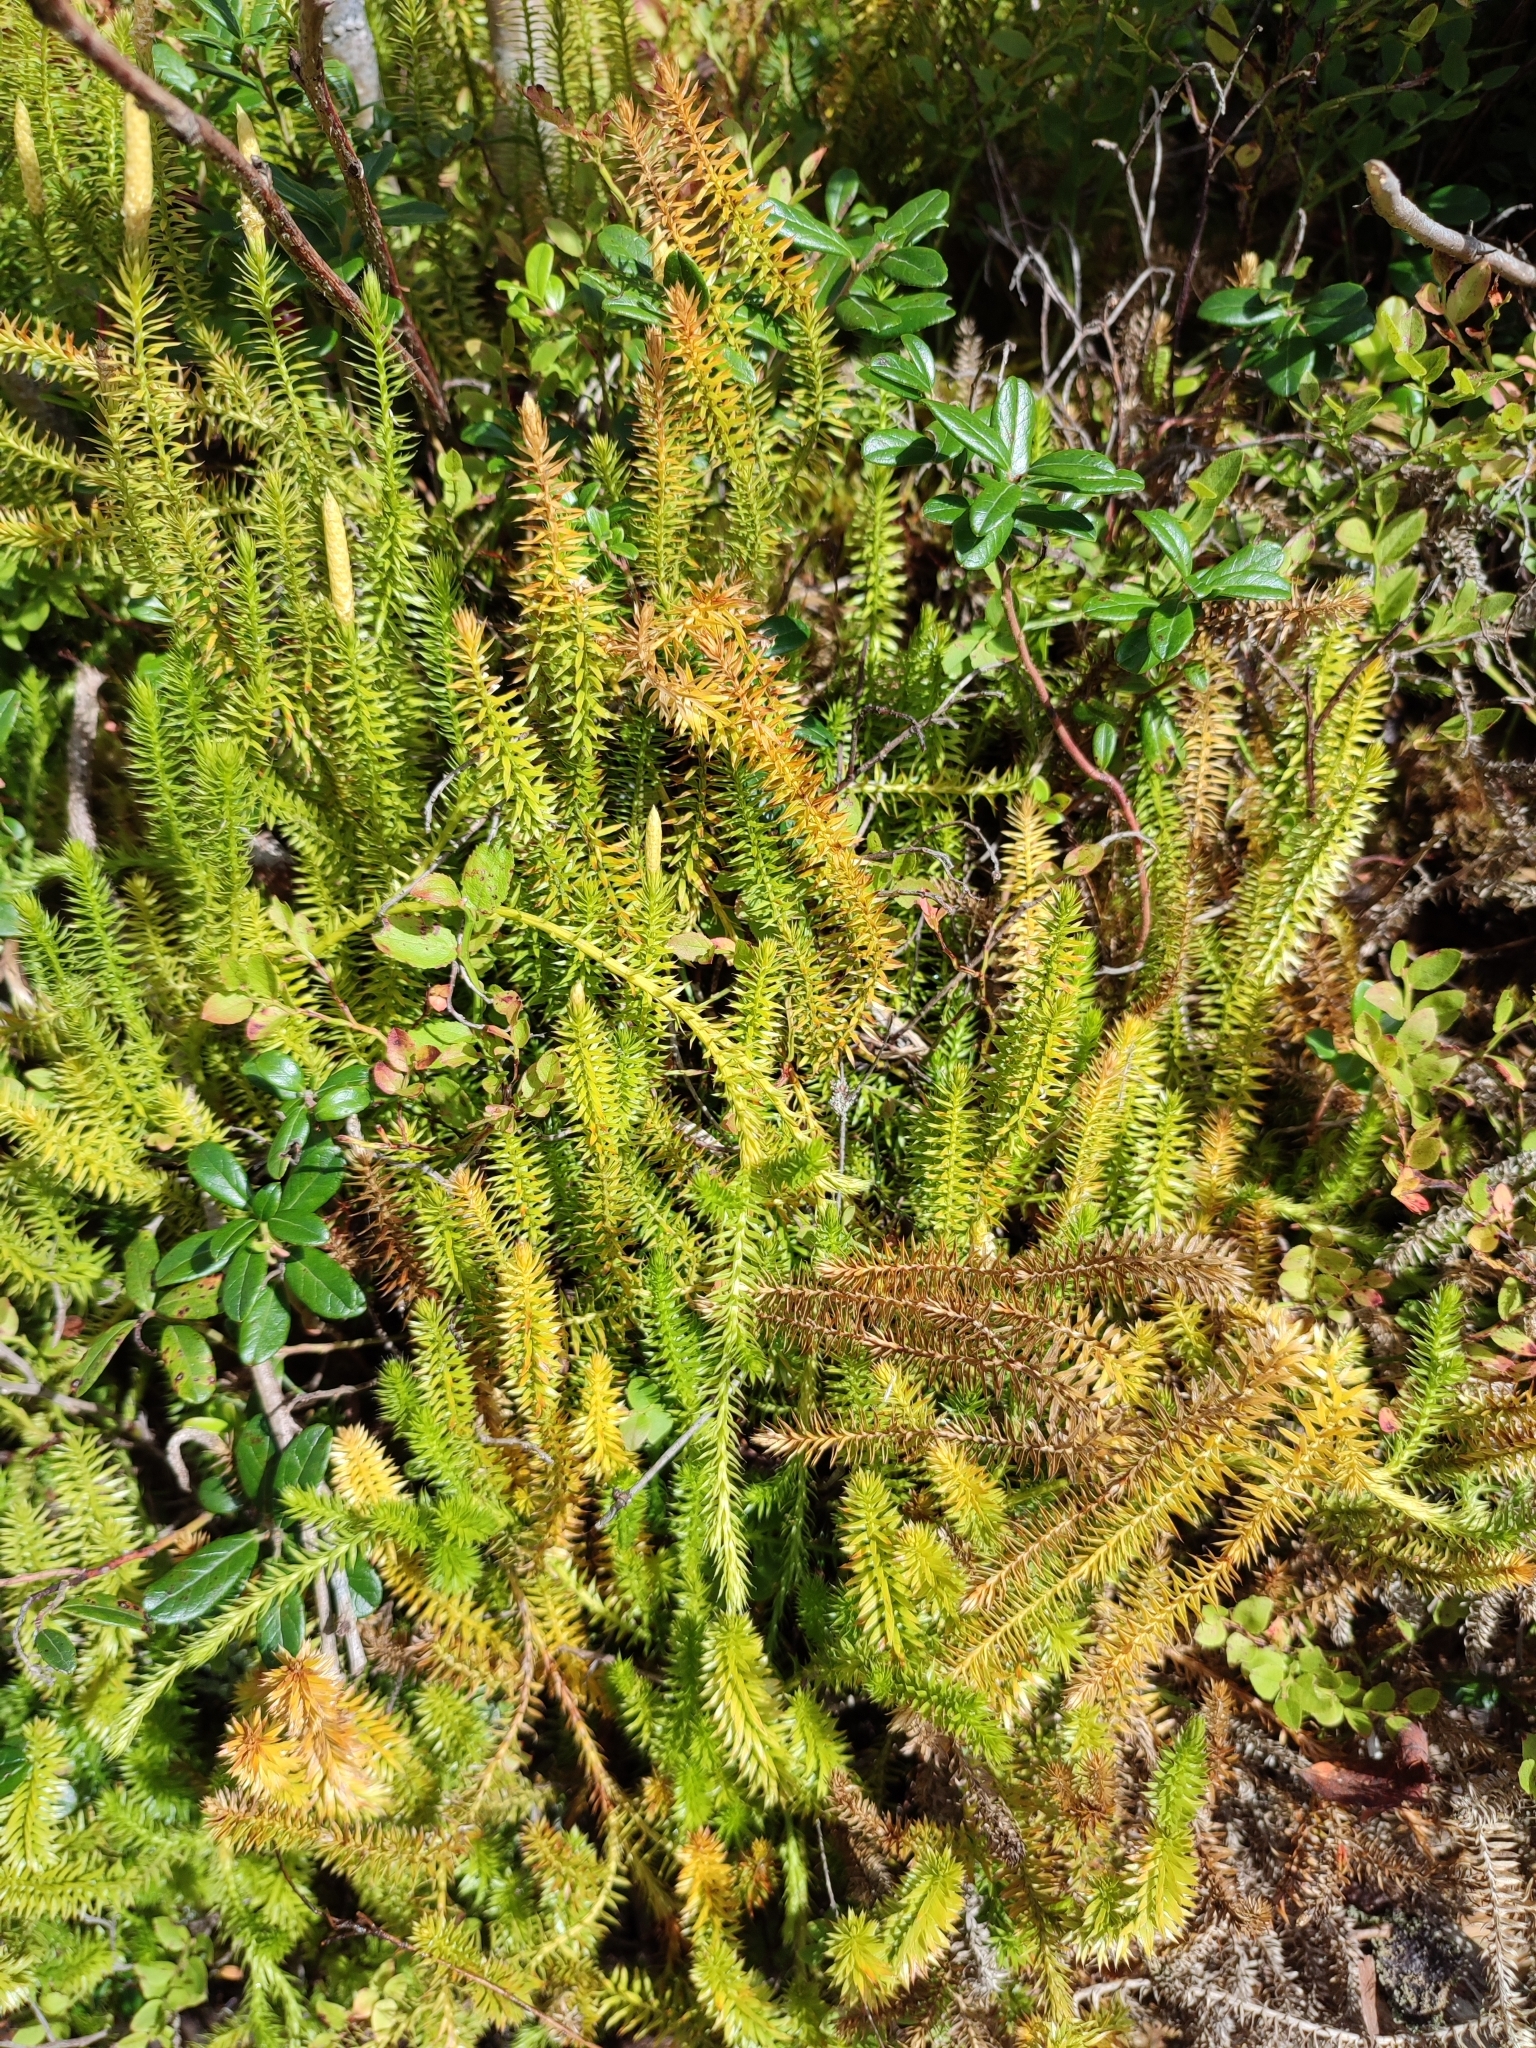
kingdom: Plantae
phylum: Tracheophyta
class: Lycopodiopsida
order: Lycopodiales
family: Lycopodiaceae
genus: Spinulum
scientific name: Spinulum annotinum
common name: Interrupted club-moss
